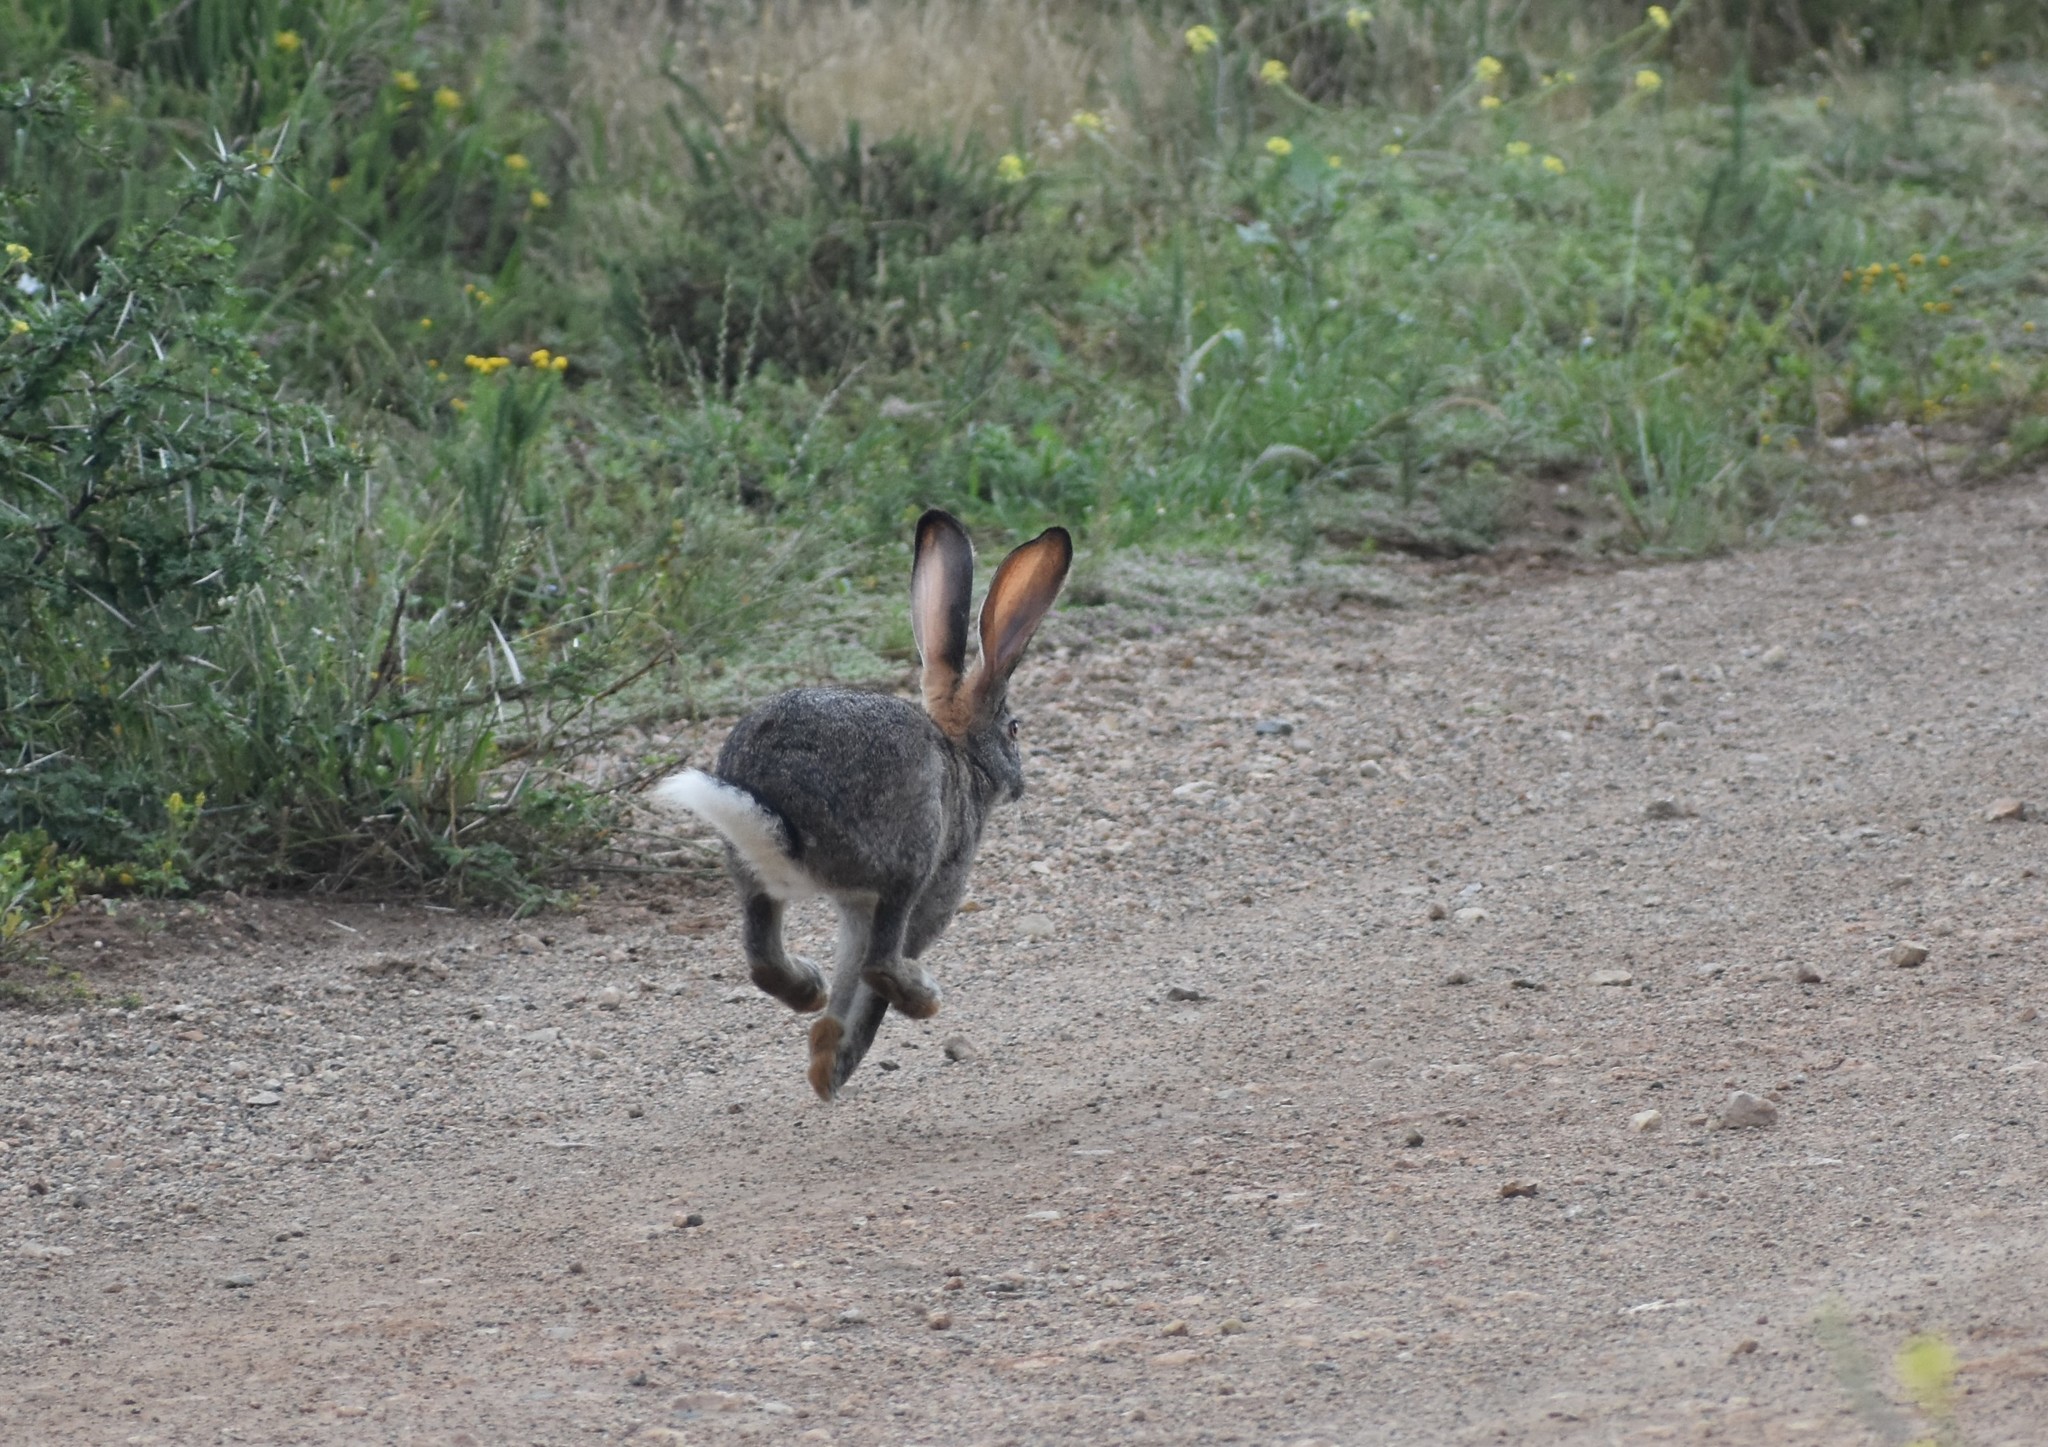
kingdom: Animalia
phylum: Chordata
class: Mammalia
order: Lagomorpha
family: Leporidae
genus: Lepus
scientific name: Lepus saxatilis
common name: Scrub hare
